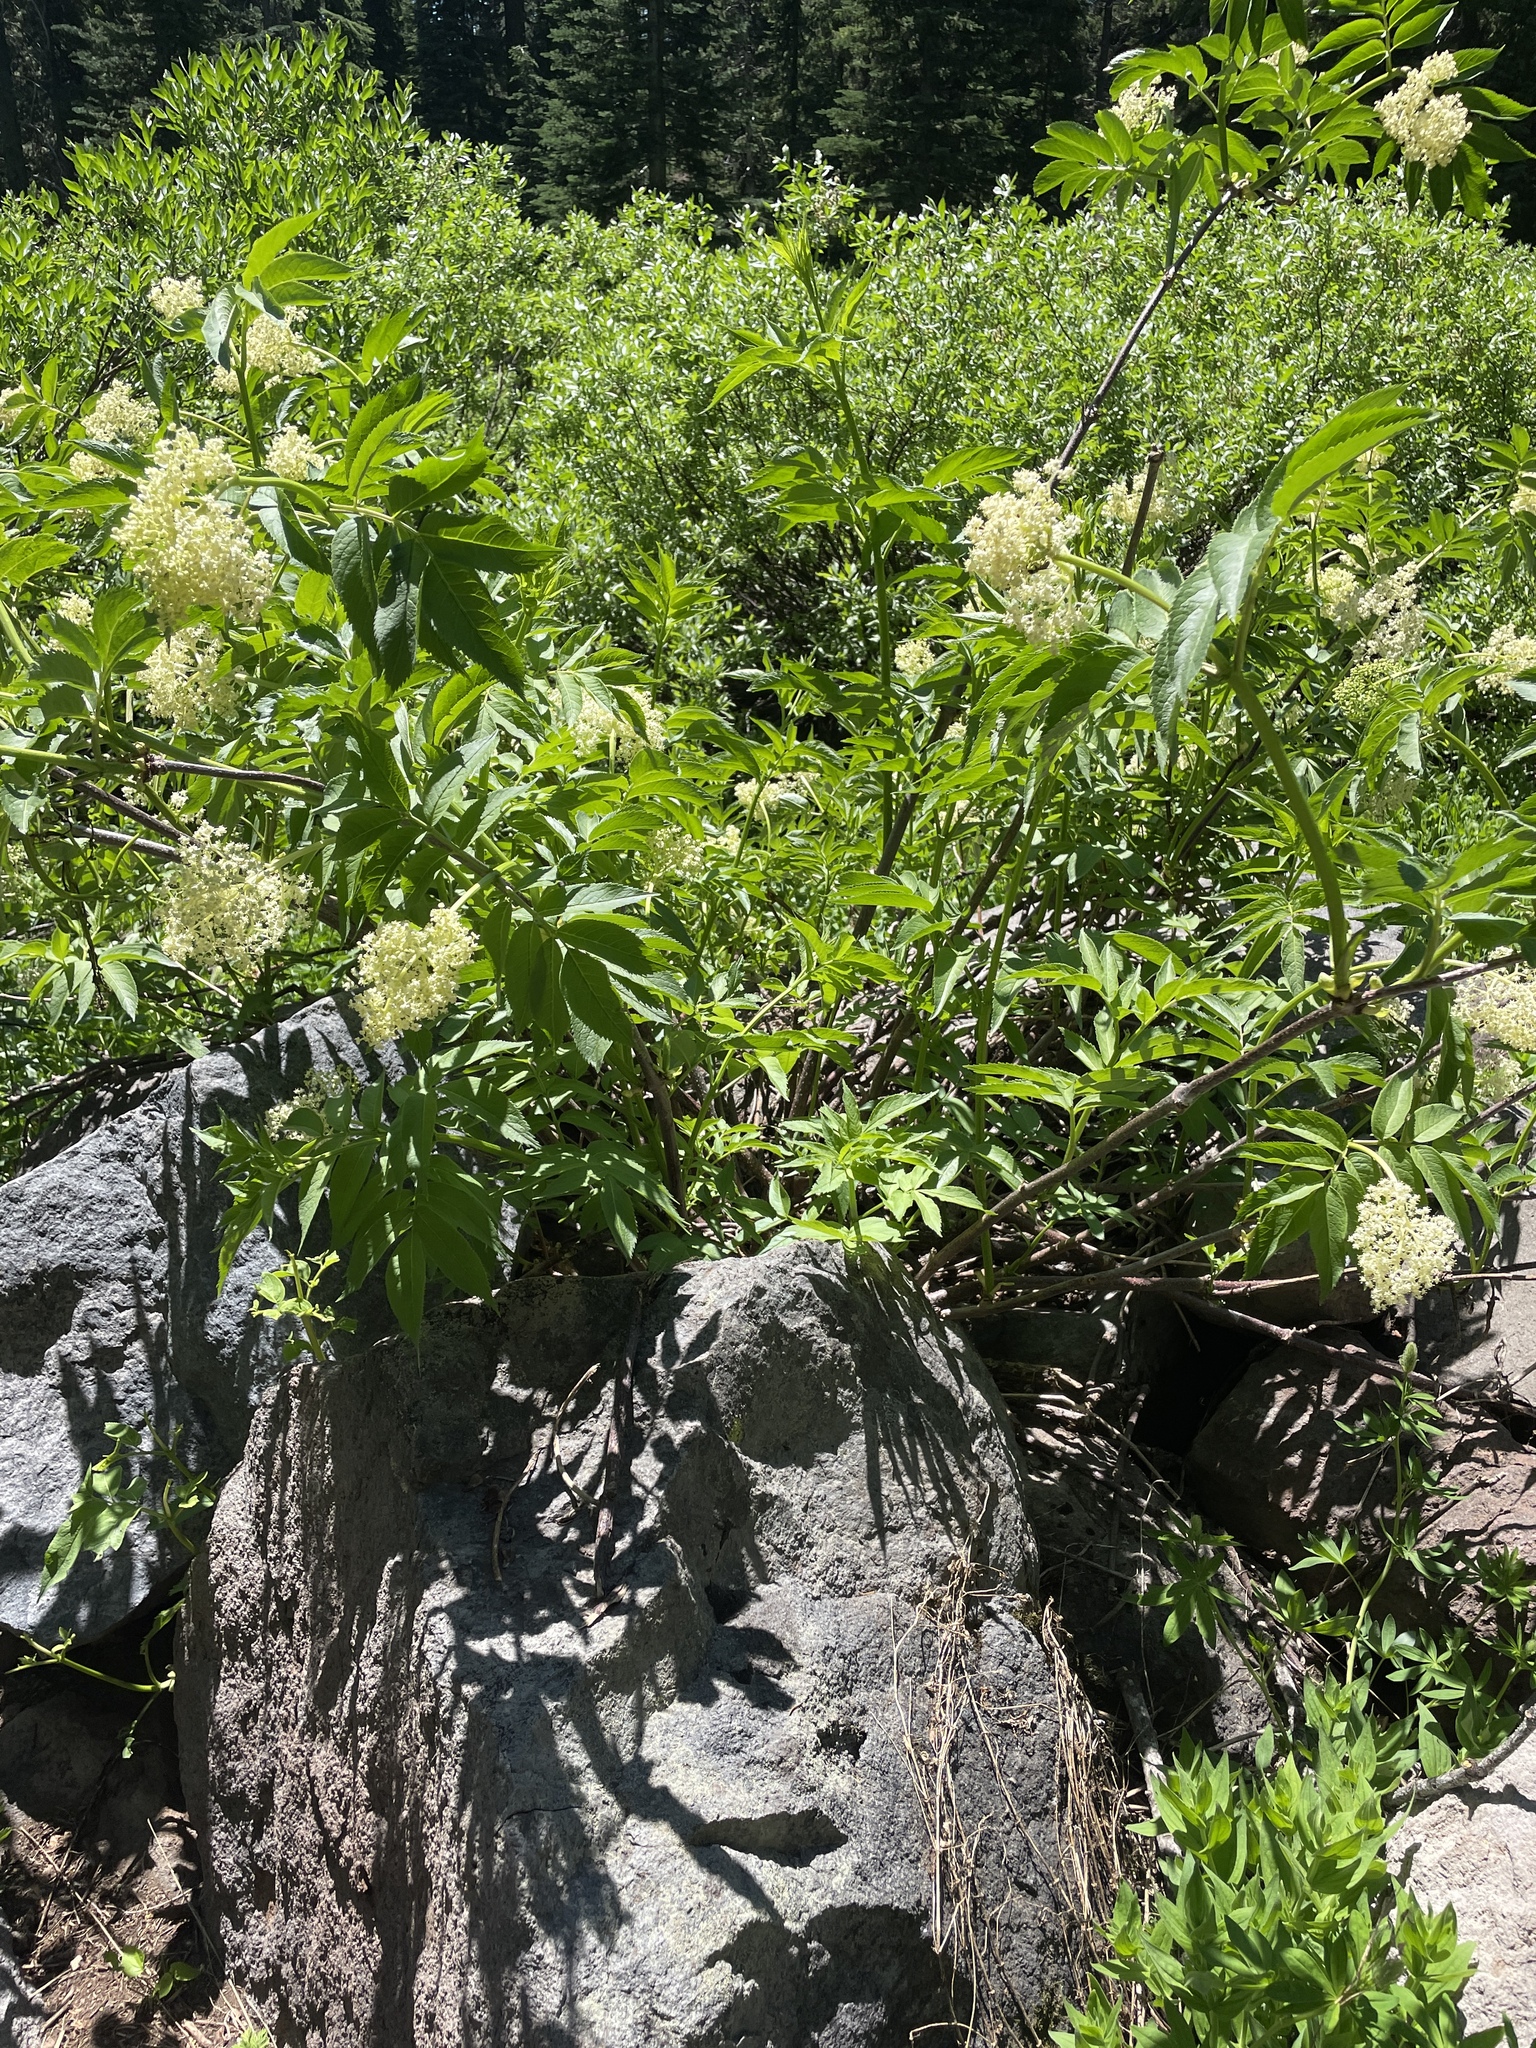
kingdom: Plantae
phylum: Tracheophyta
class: Magnoliopsida
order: Dipsacales
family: Viburnaceae
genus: Sambucus
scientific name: Sambucus racemosa
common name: Red-berried elder
